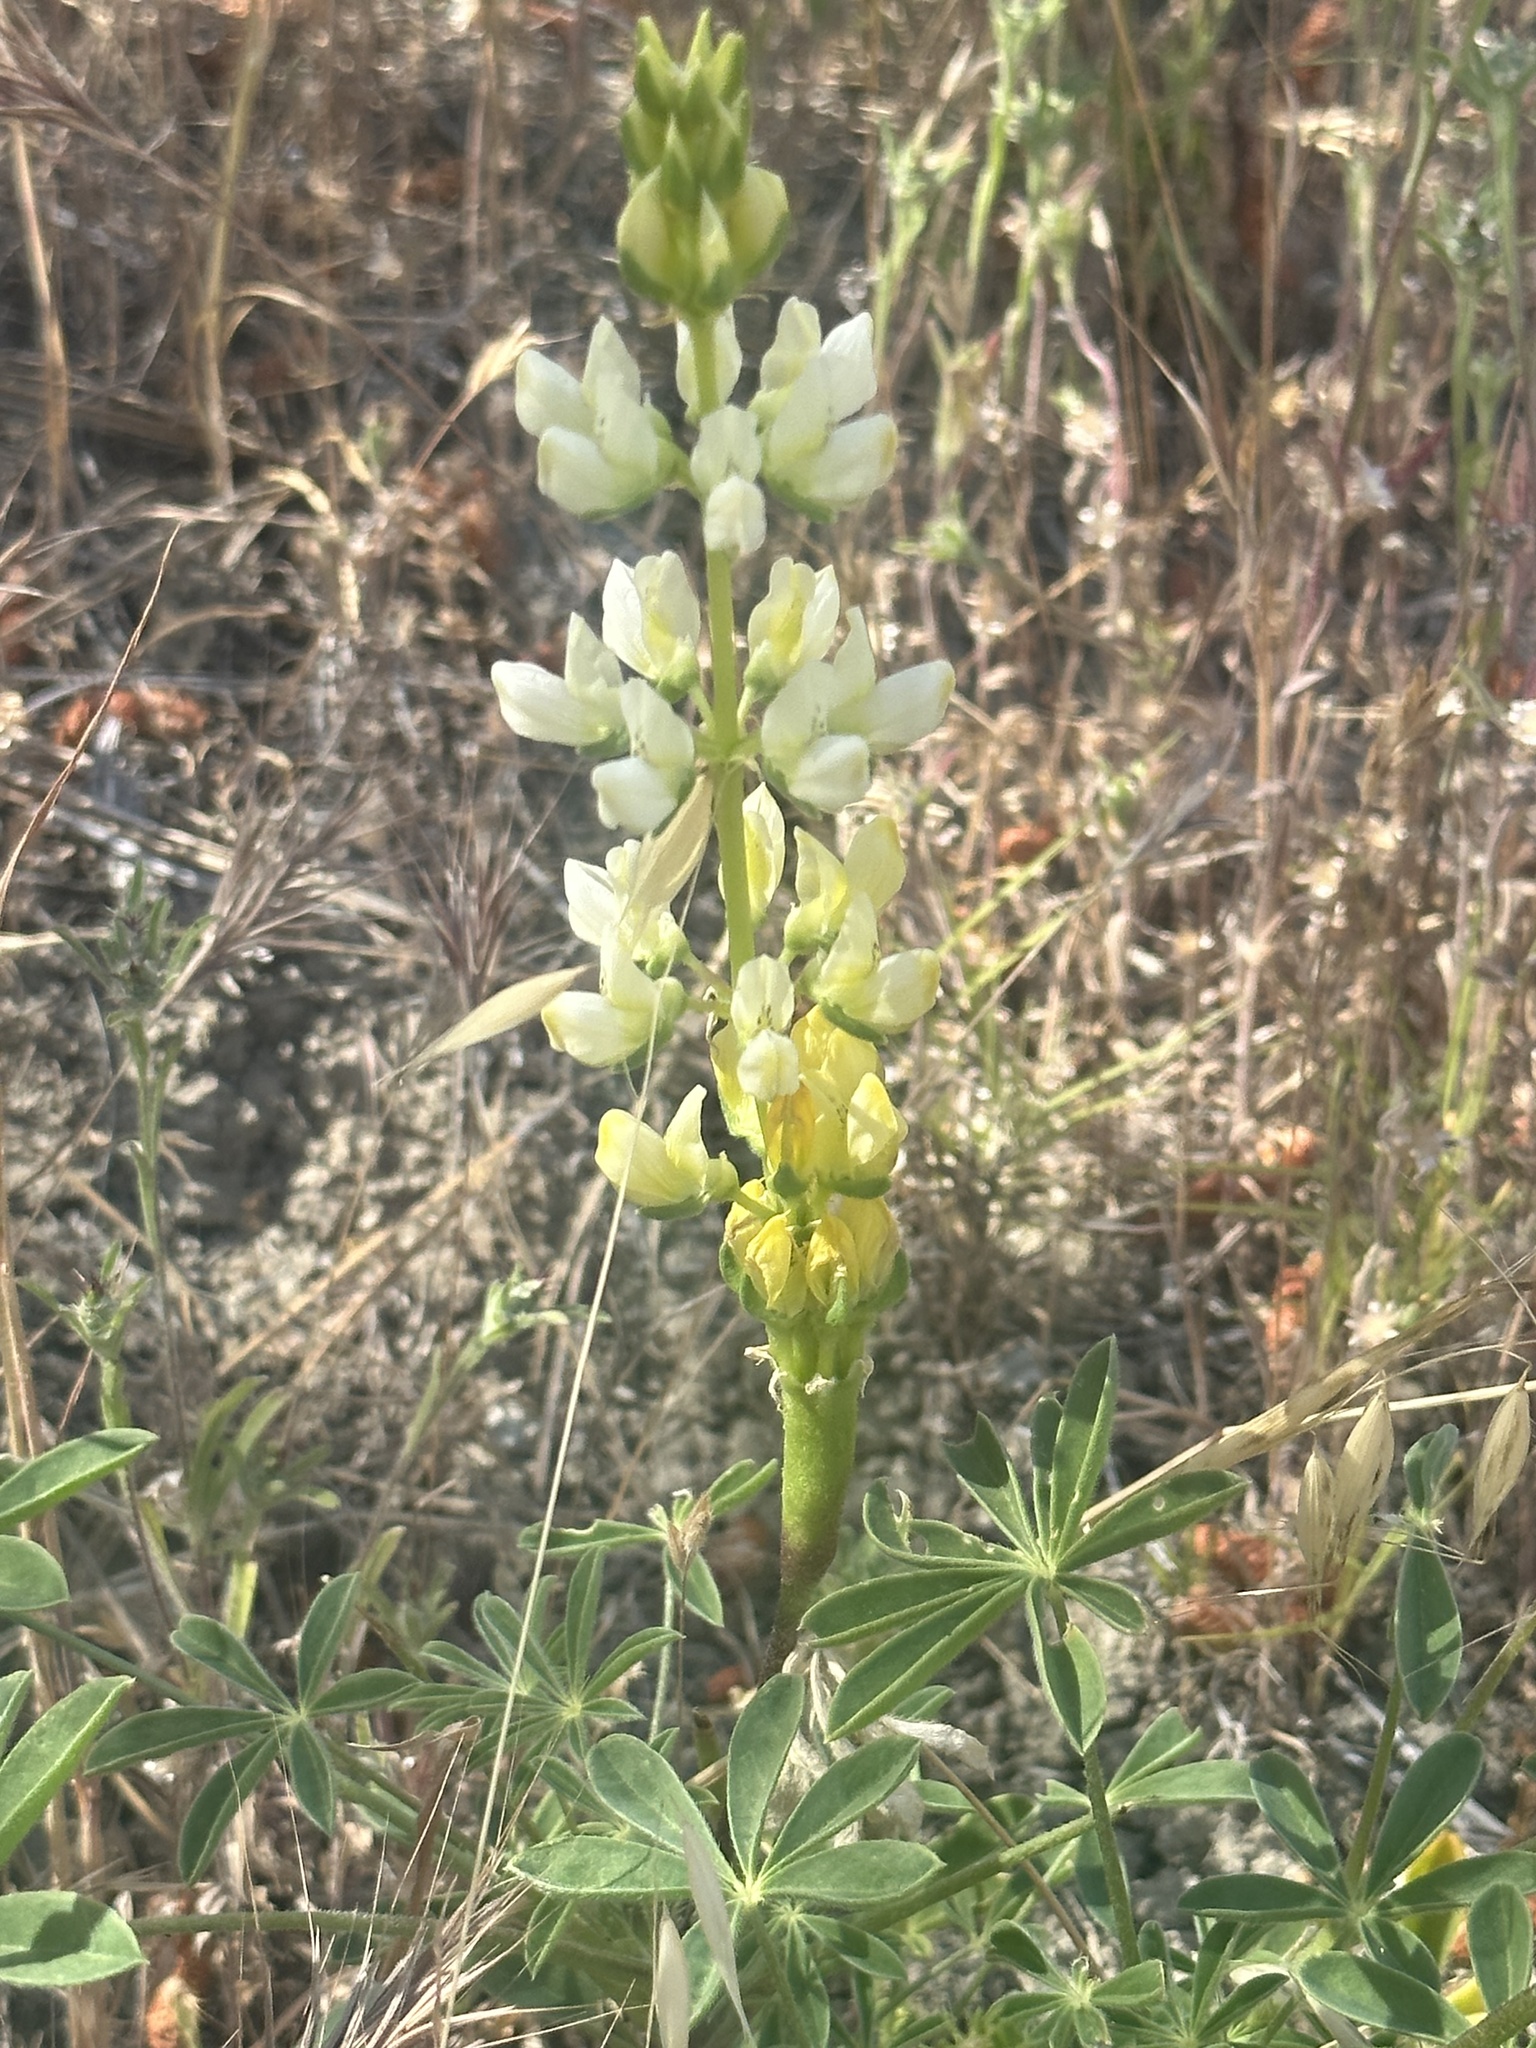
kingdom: Plantae
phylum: Tracheophyta
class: Magnoliopsida
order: Fabales
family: Fabaceae
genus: Lupinus
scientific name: Lupinus microcarpus
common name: Chick lupine
